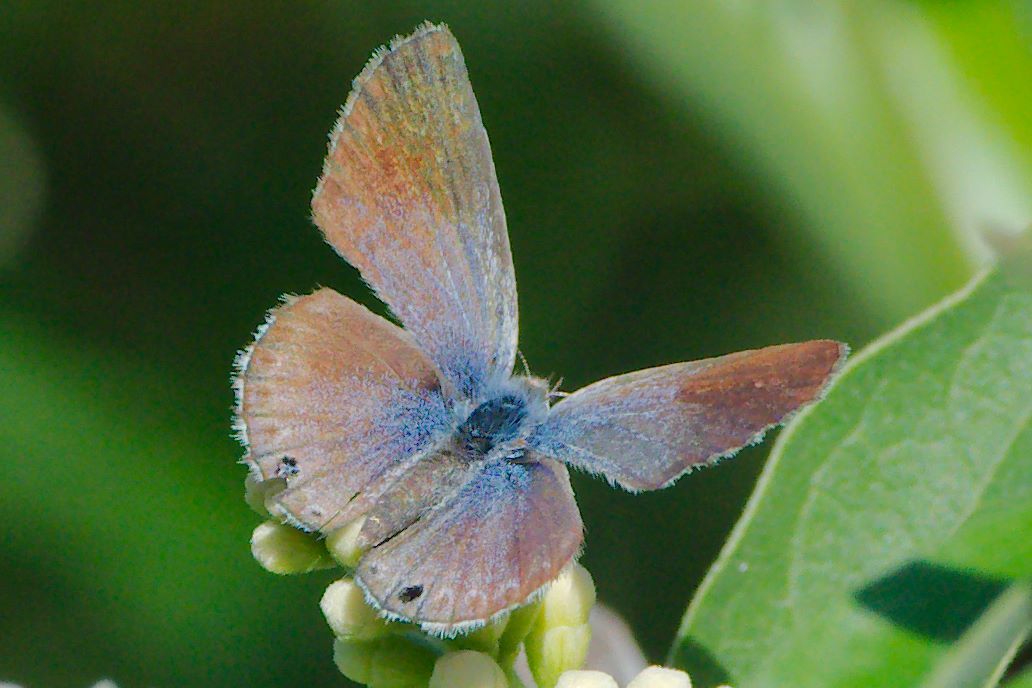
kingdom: Animalia
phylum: Arthropoda
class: Insecta
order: Lepidoptera
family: Lycaenidae
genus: Echinargus
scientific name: Echinargus isola
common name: Reakirt's blue
